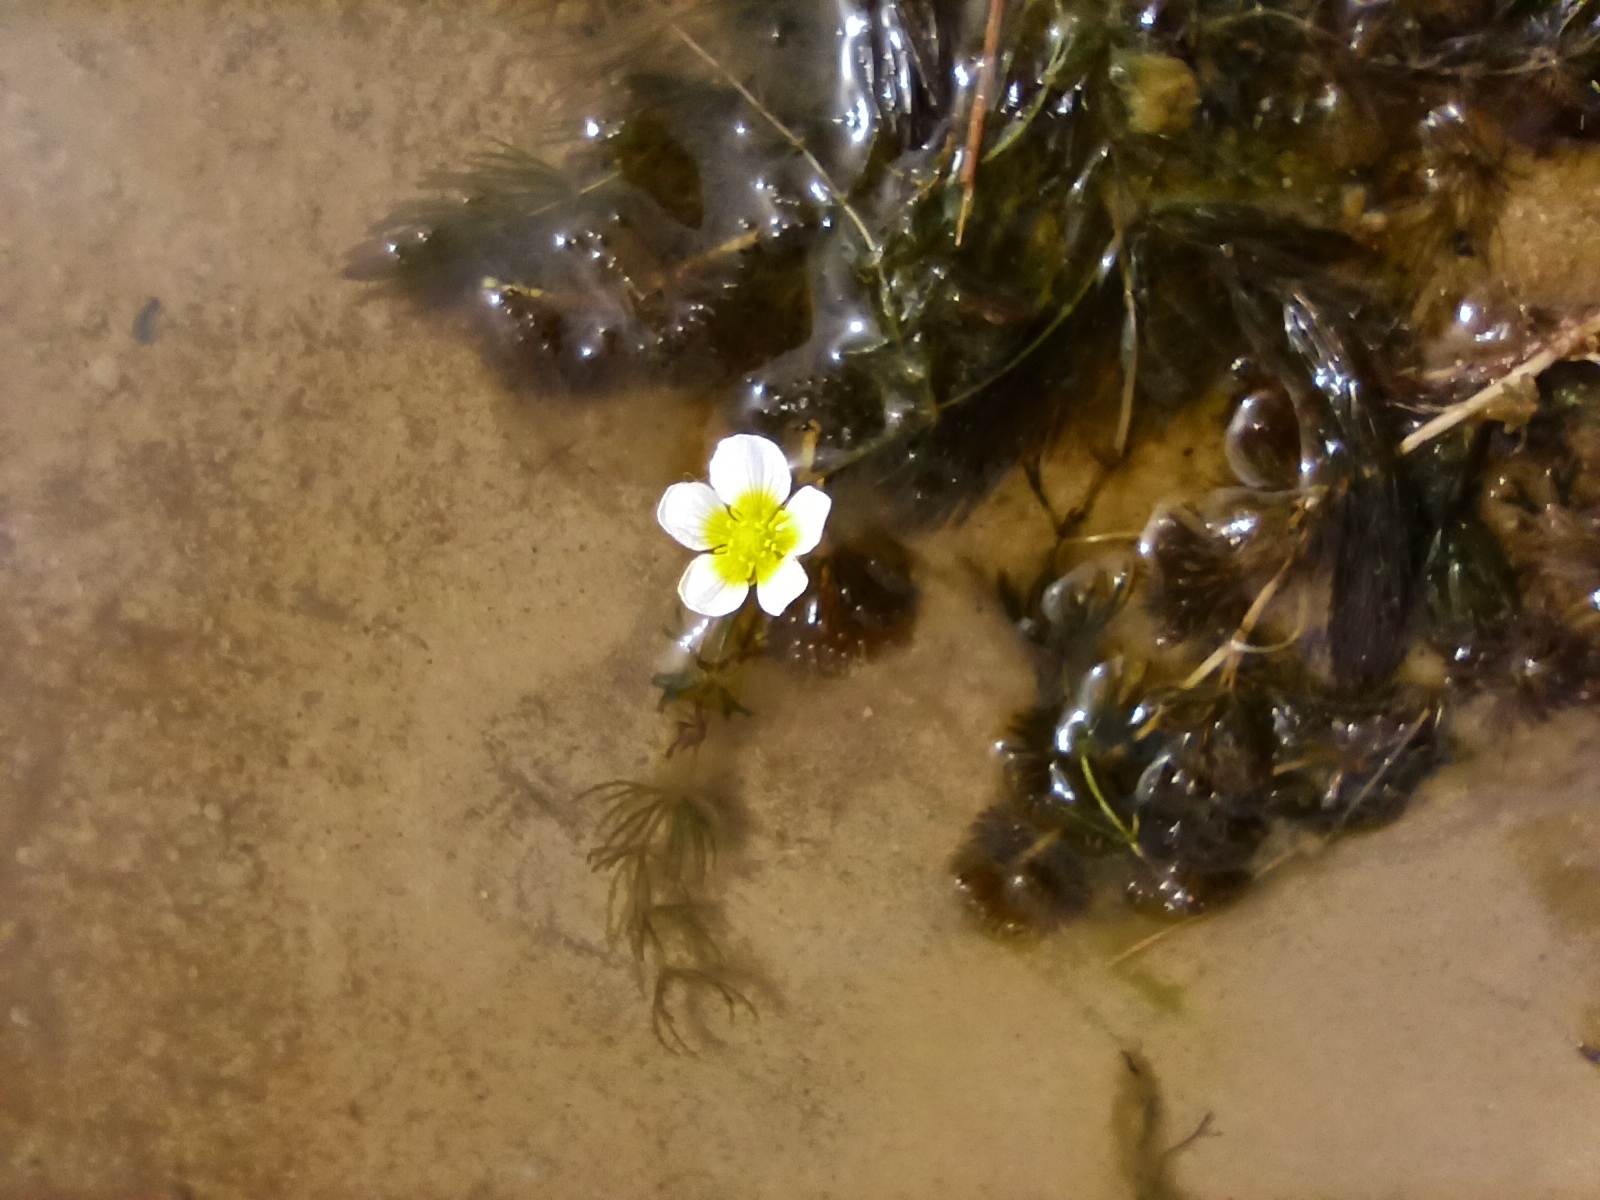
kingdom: Plantae
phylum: Tracheophyta
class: Magnoliopsida
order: Ranunculales
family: Ranunculaceae
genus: Ranunculus
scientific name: Ranunculus circinatus
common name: Fan-leaved water-crowfoot
